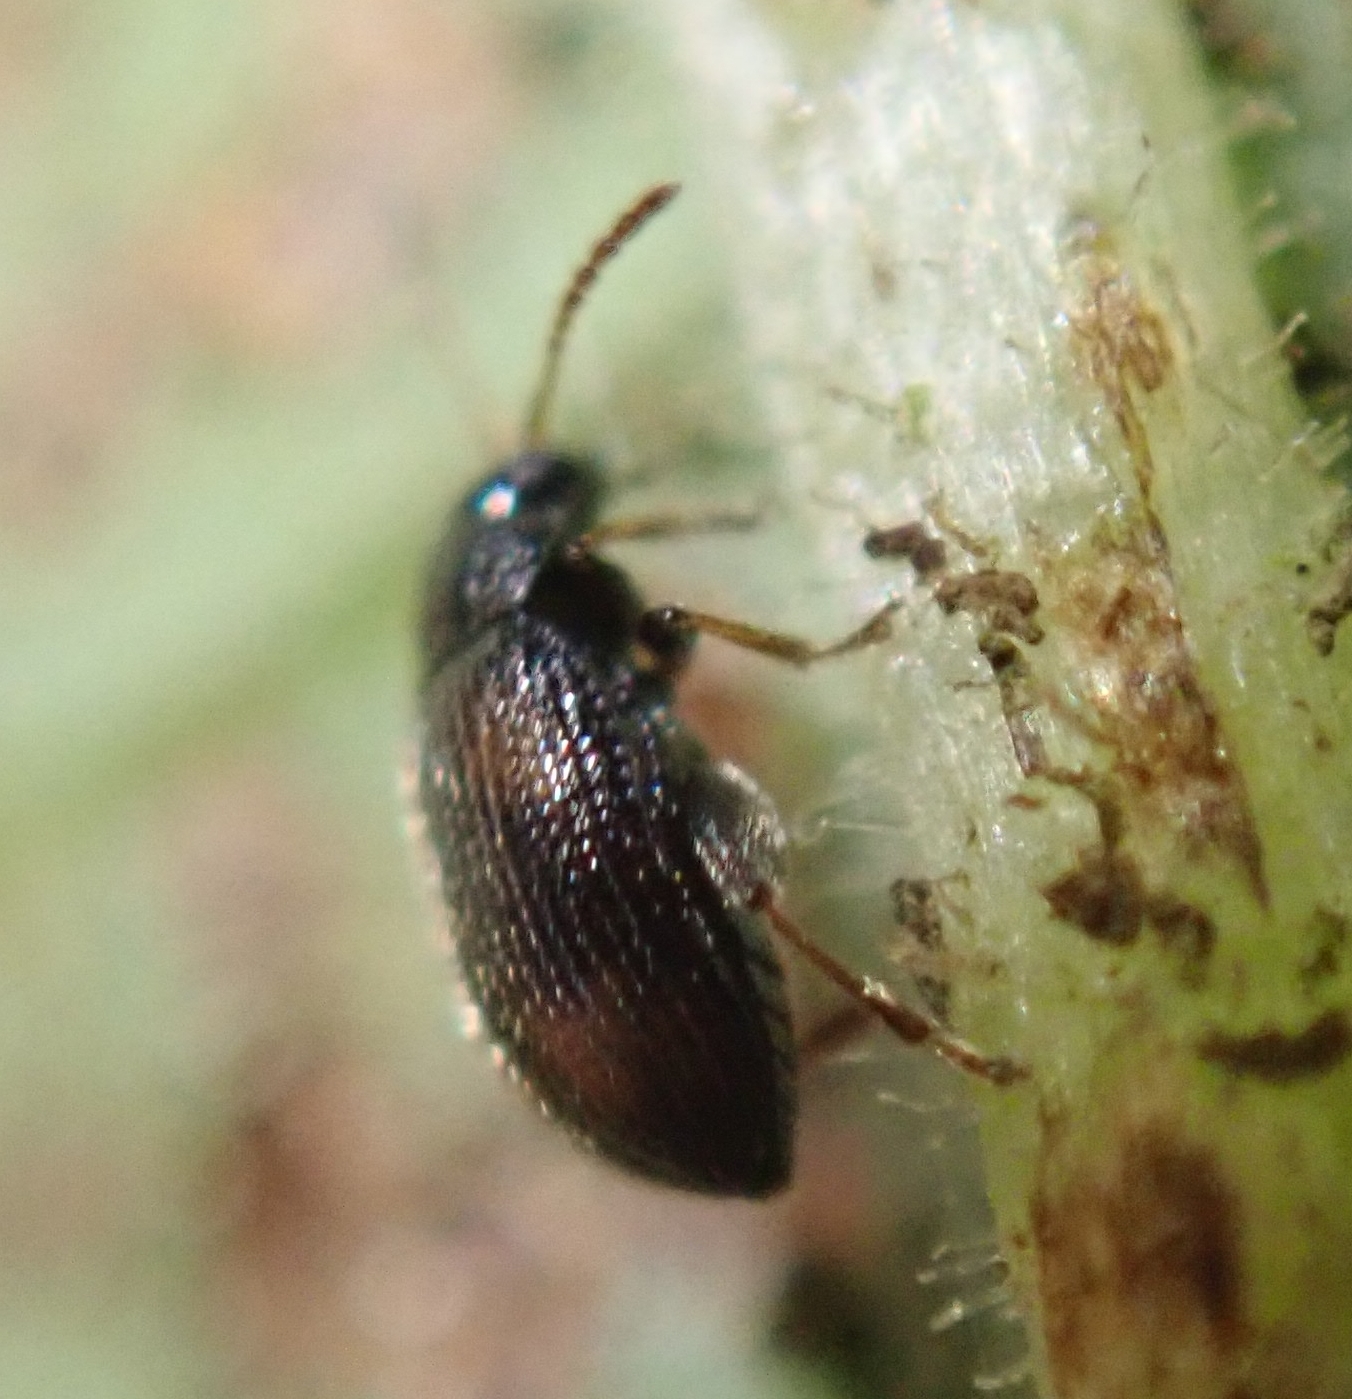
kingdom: Animalia
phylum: Arthropoda
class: Insecta
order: Coleoptera
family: Chrysomelidae
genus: Epitrix
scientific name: Epitrix atropae
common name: Belladonna flea beetle
